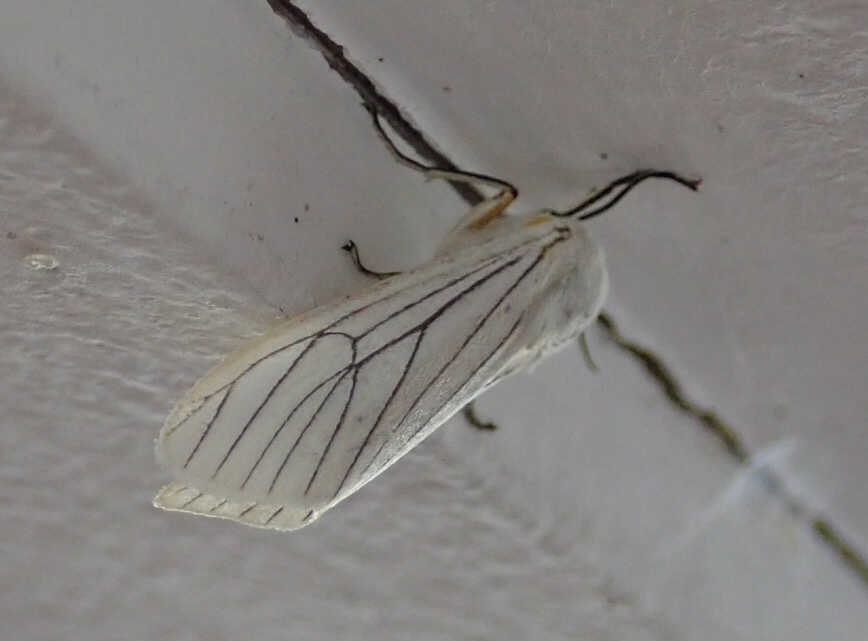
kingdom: Animalia
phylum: Arthropoda
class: Insecta
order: Lepidoptera
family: Erebidae
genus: Amsacta
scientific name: Amsacta grammiphlebia
